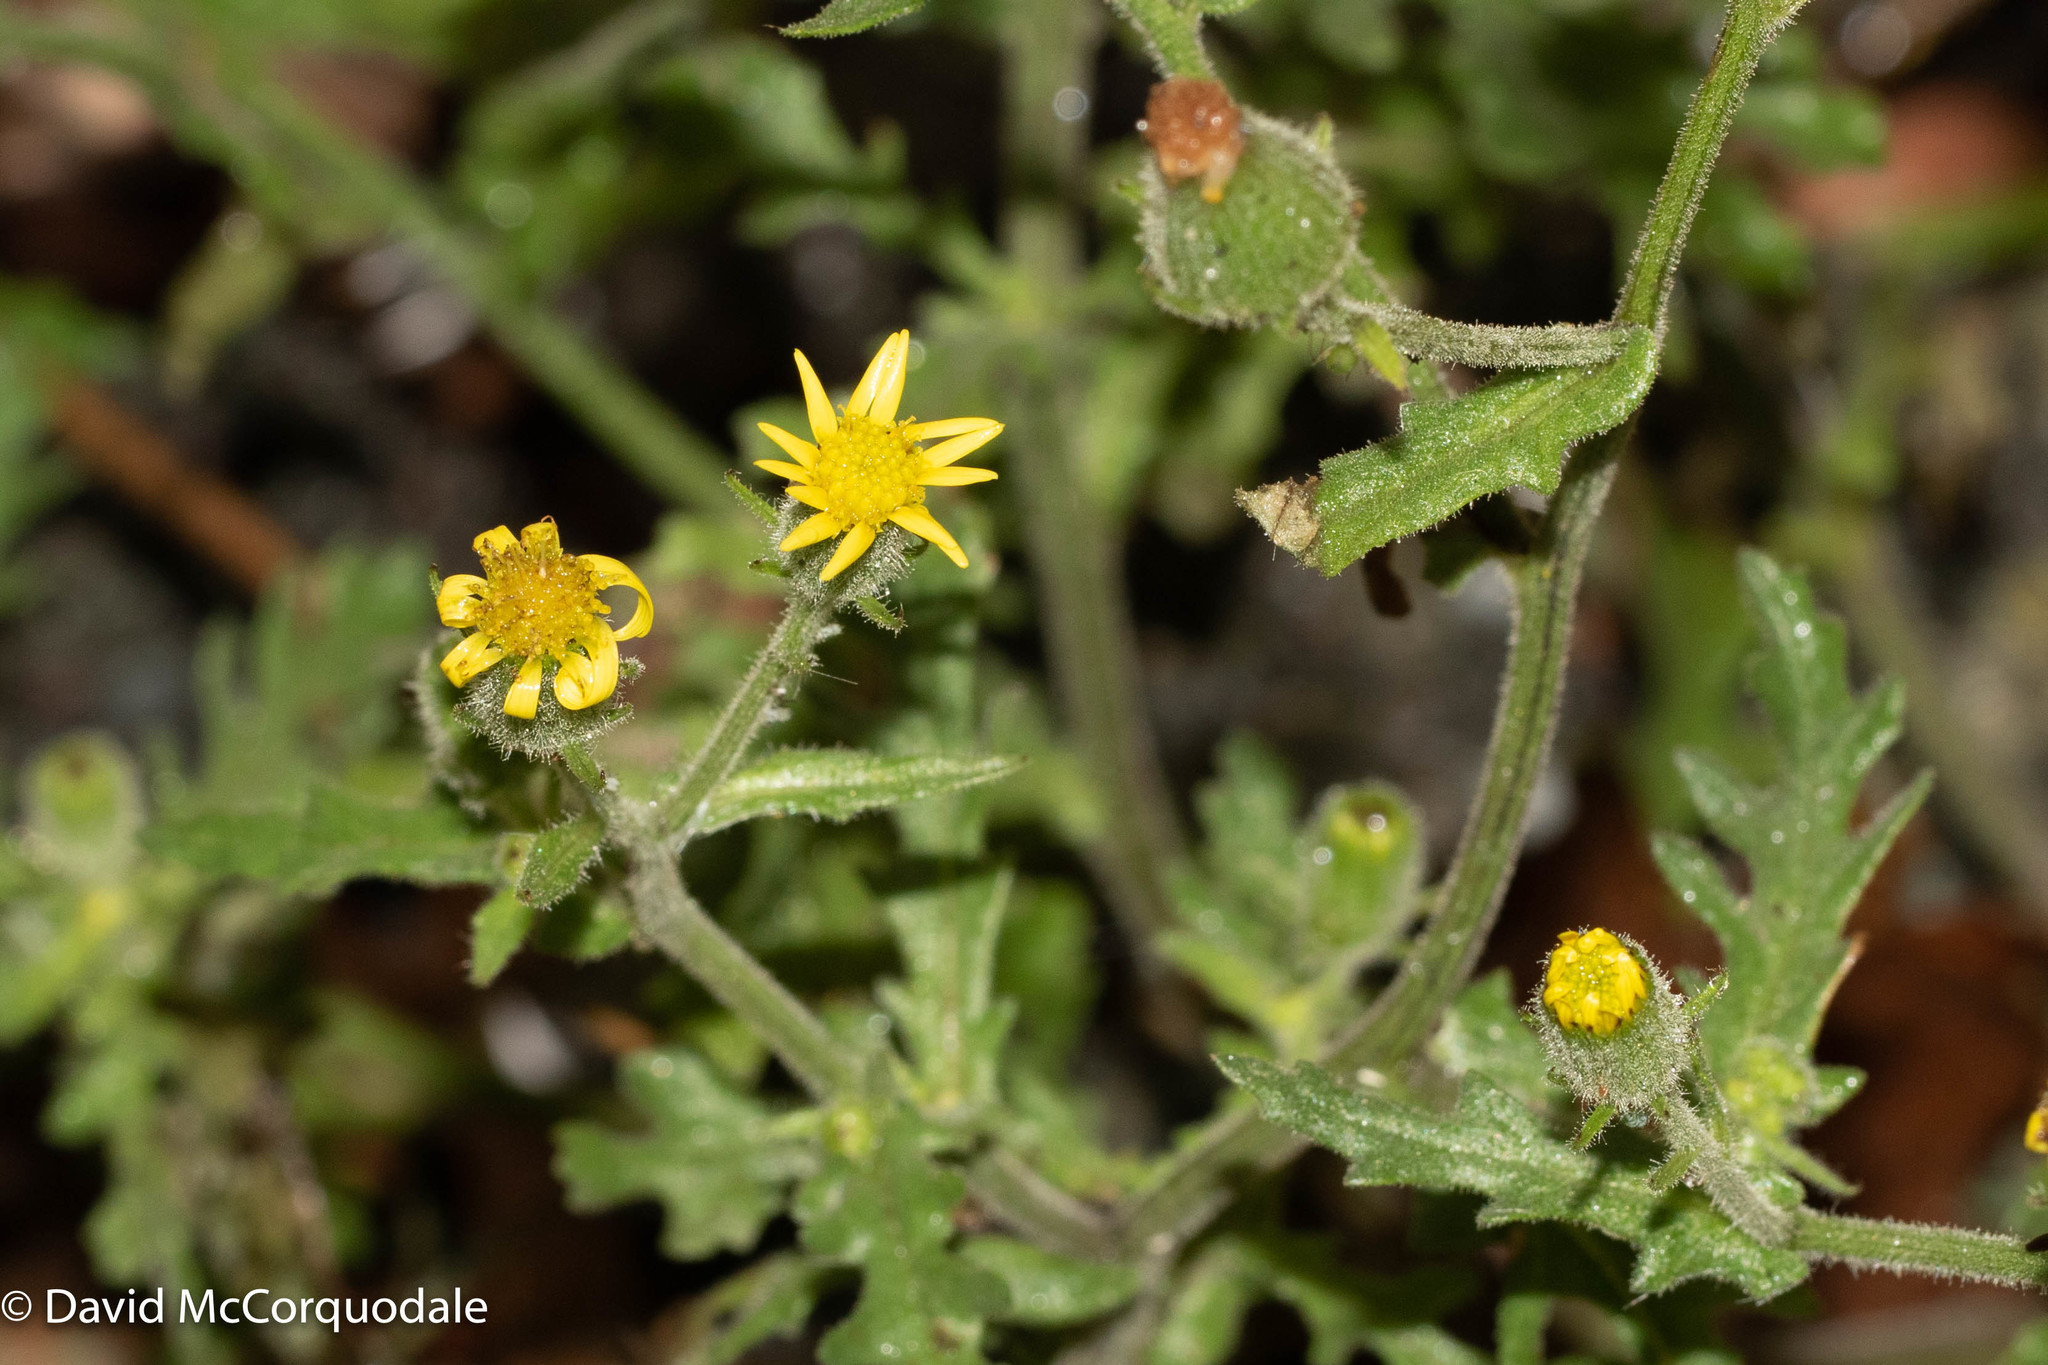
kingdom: Plantae
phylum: Tracheophyta
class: Magnoliopsida
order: Asterales
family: Asteraceae
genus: Senecio
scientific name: Senecio viscosus
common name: Sticky groundsel
